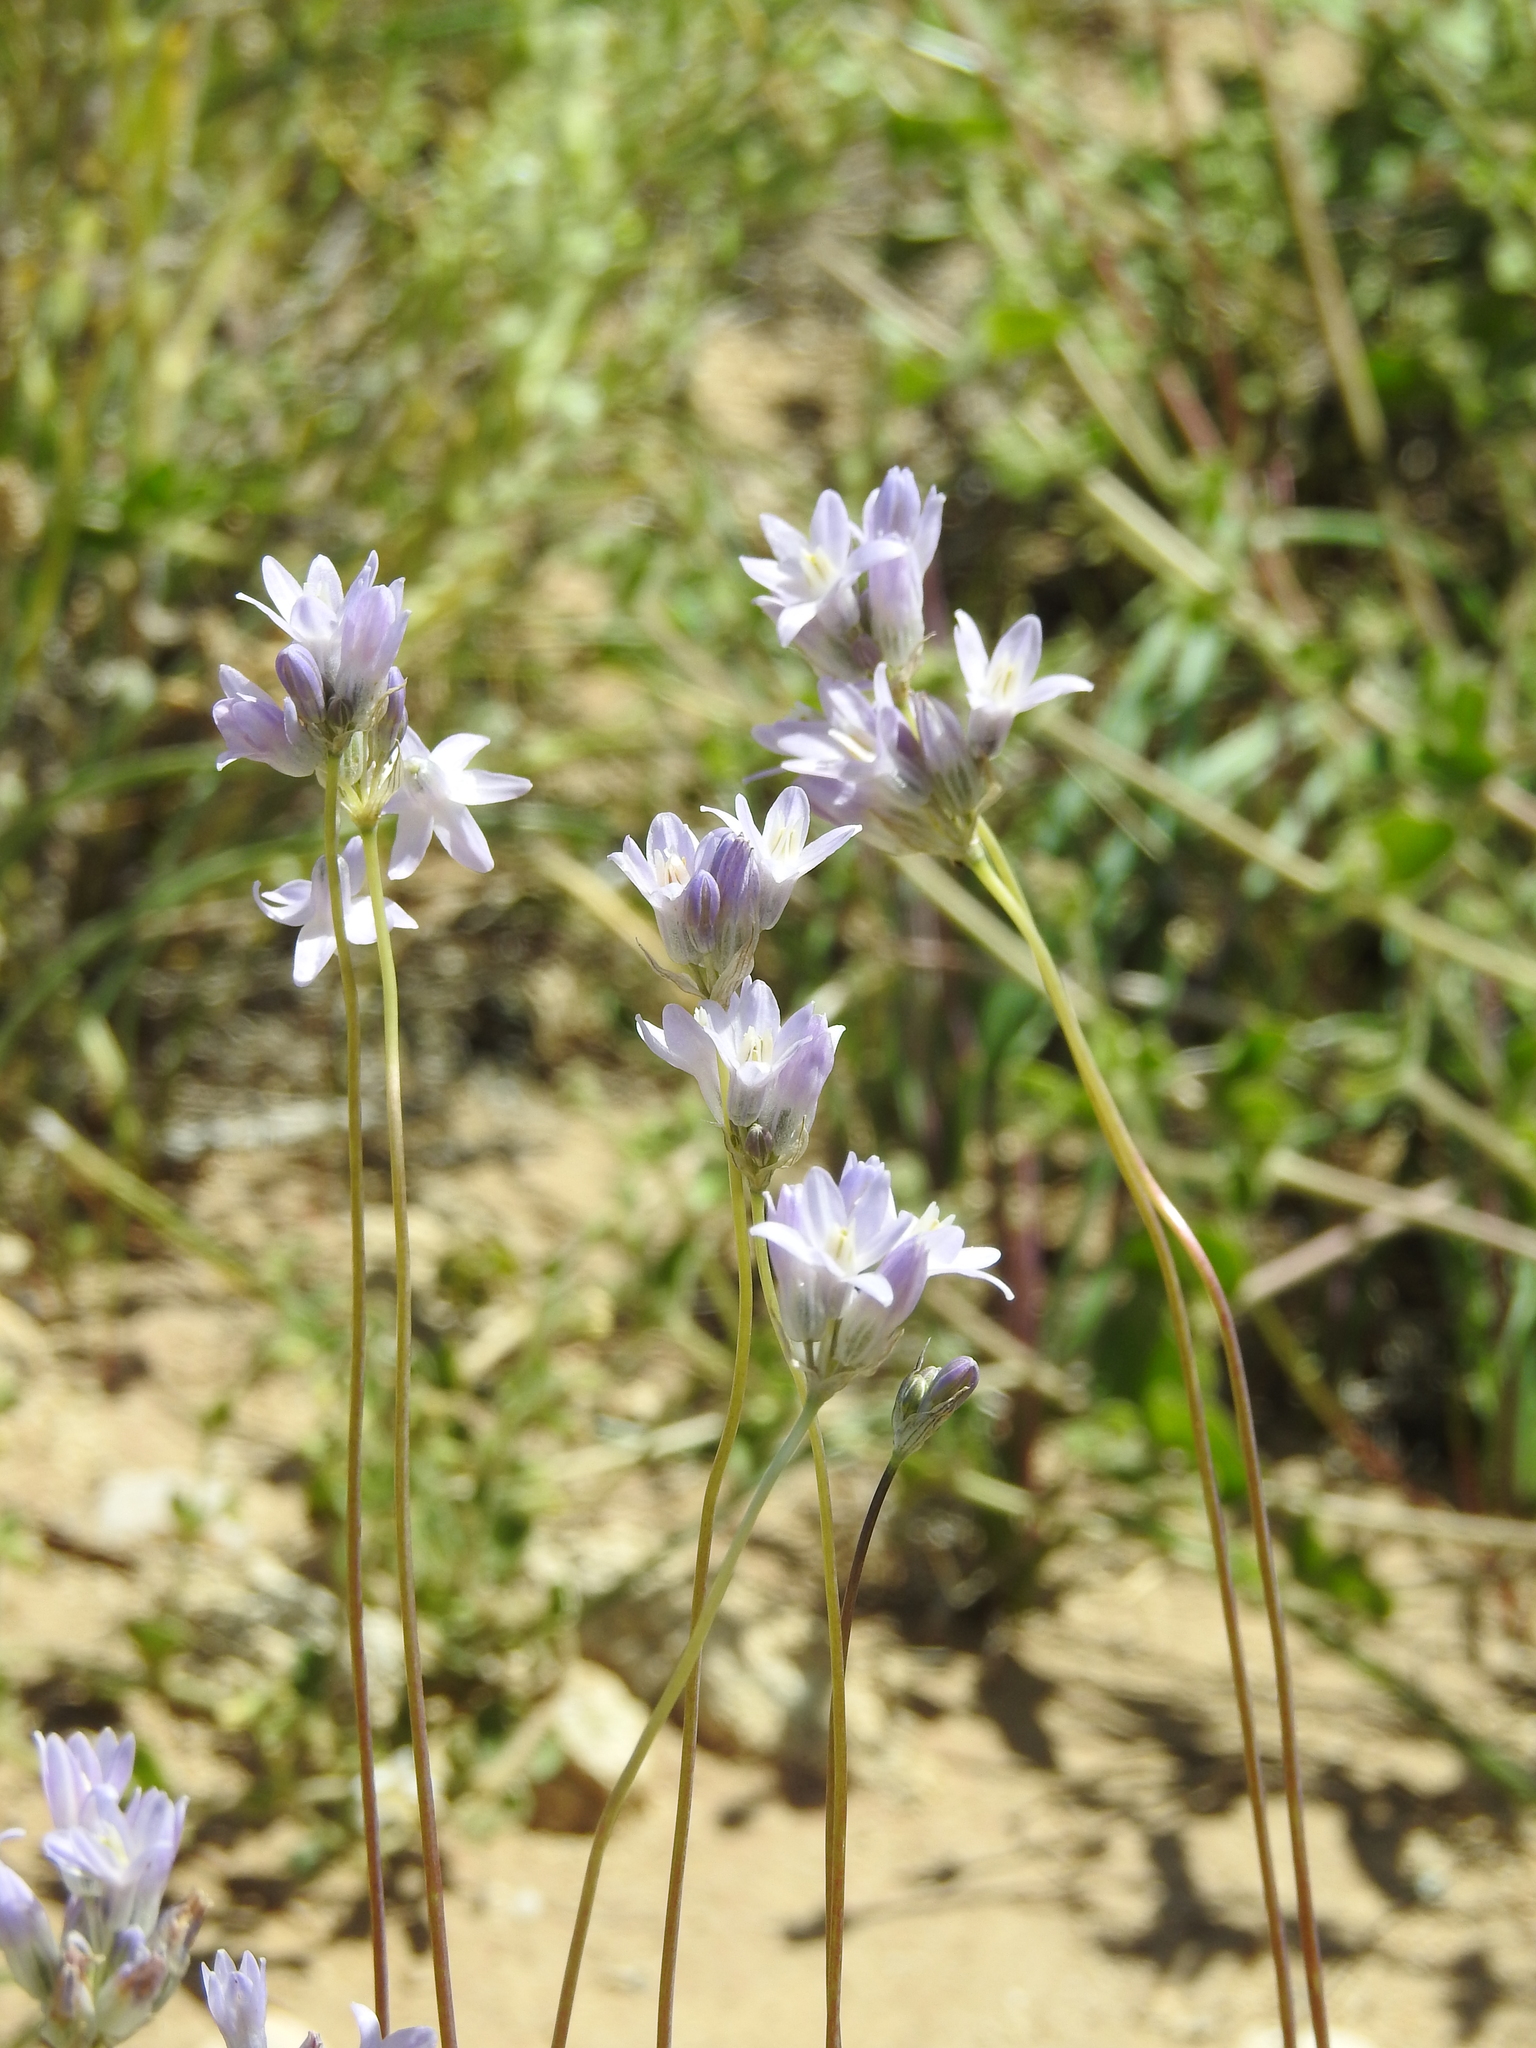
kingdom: Plantae
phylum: Tracheophyta
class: Liliopsida
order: Asparagales
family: Asparagaceae
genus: Dipterostemon
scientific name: Dipterostemon capitatus
